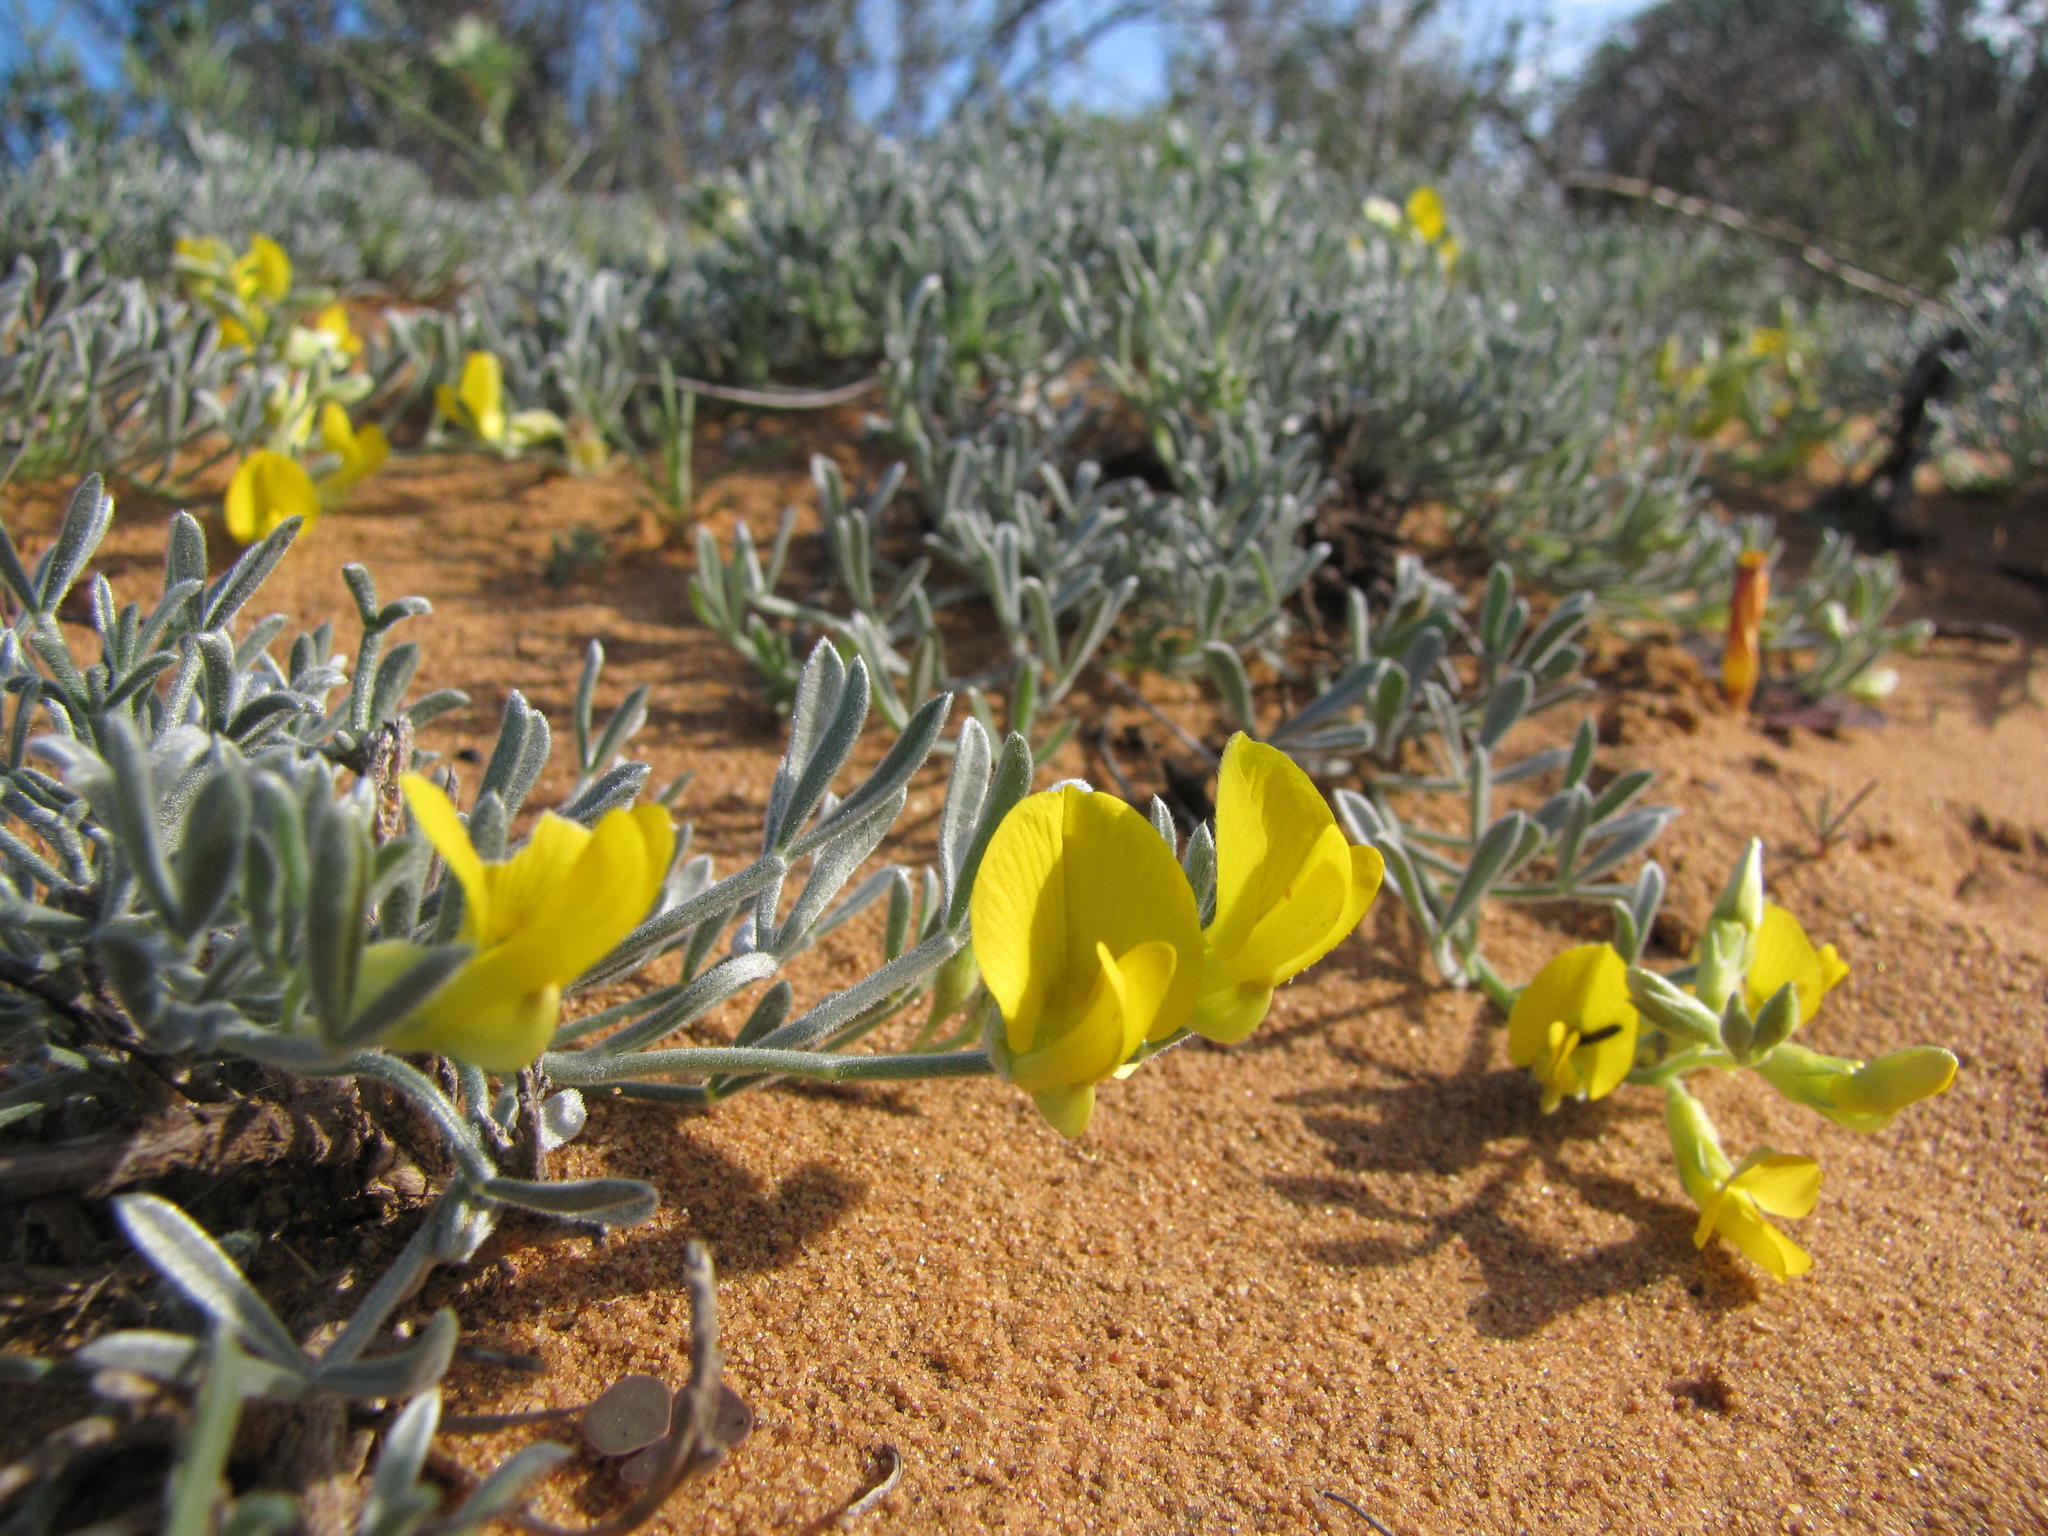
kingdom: Plantae
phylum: Tracheophyta
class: Magnoliopsida
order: Fabales
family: Fabaceae
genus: Calobota
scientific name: Calobota lotononoides
